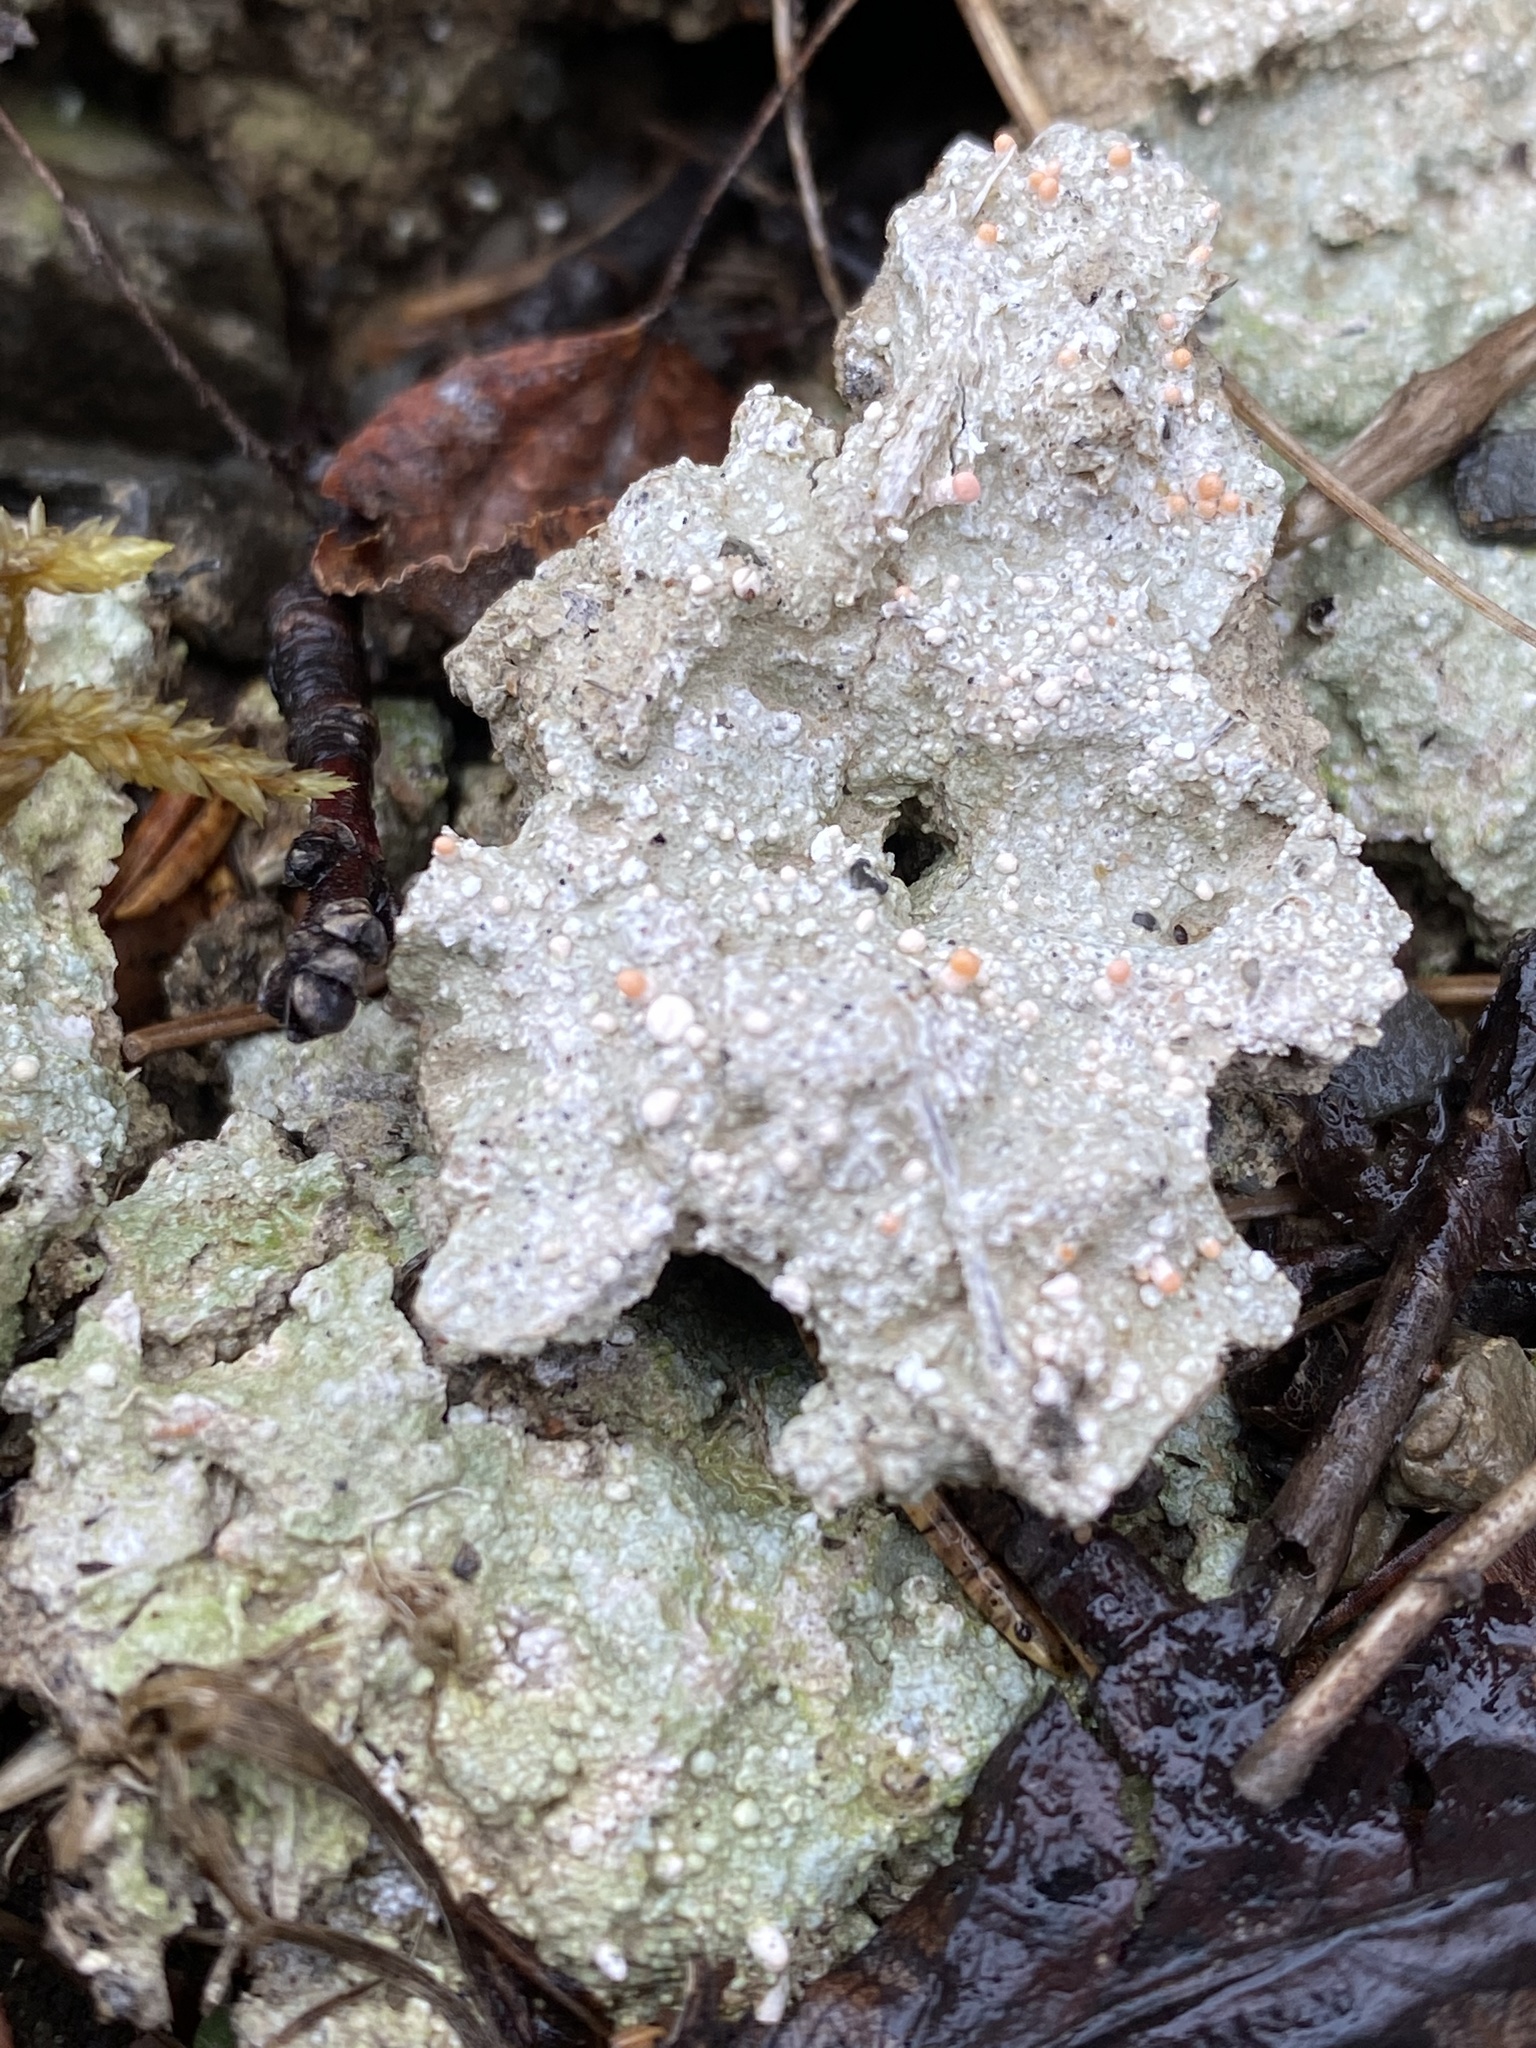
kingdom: Fungi
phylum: Ascomycota
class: Lecanoromycetes
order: Pertusariales
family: Icmadophilaceae
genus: Dibaeis
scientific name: Dibaeis baeomyces
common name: Pink earth lichen
